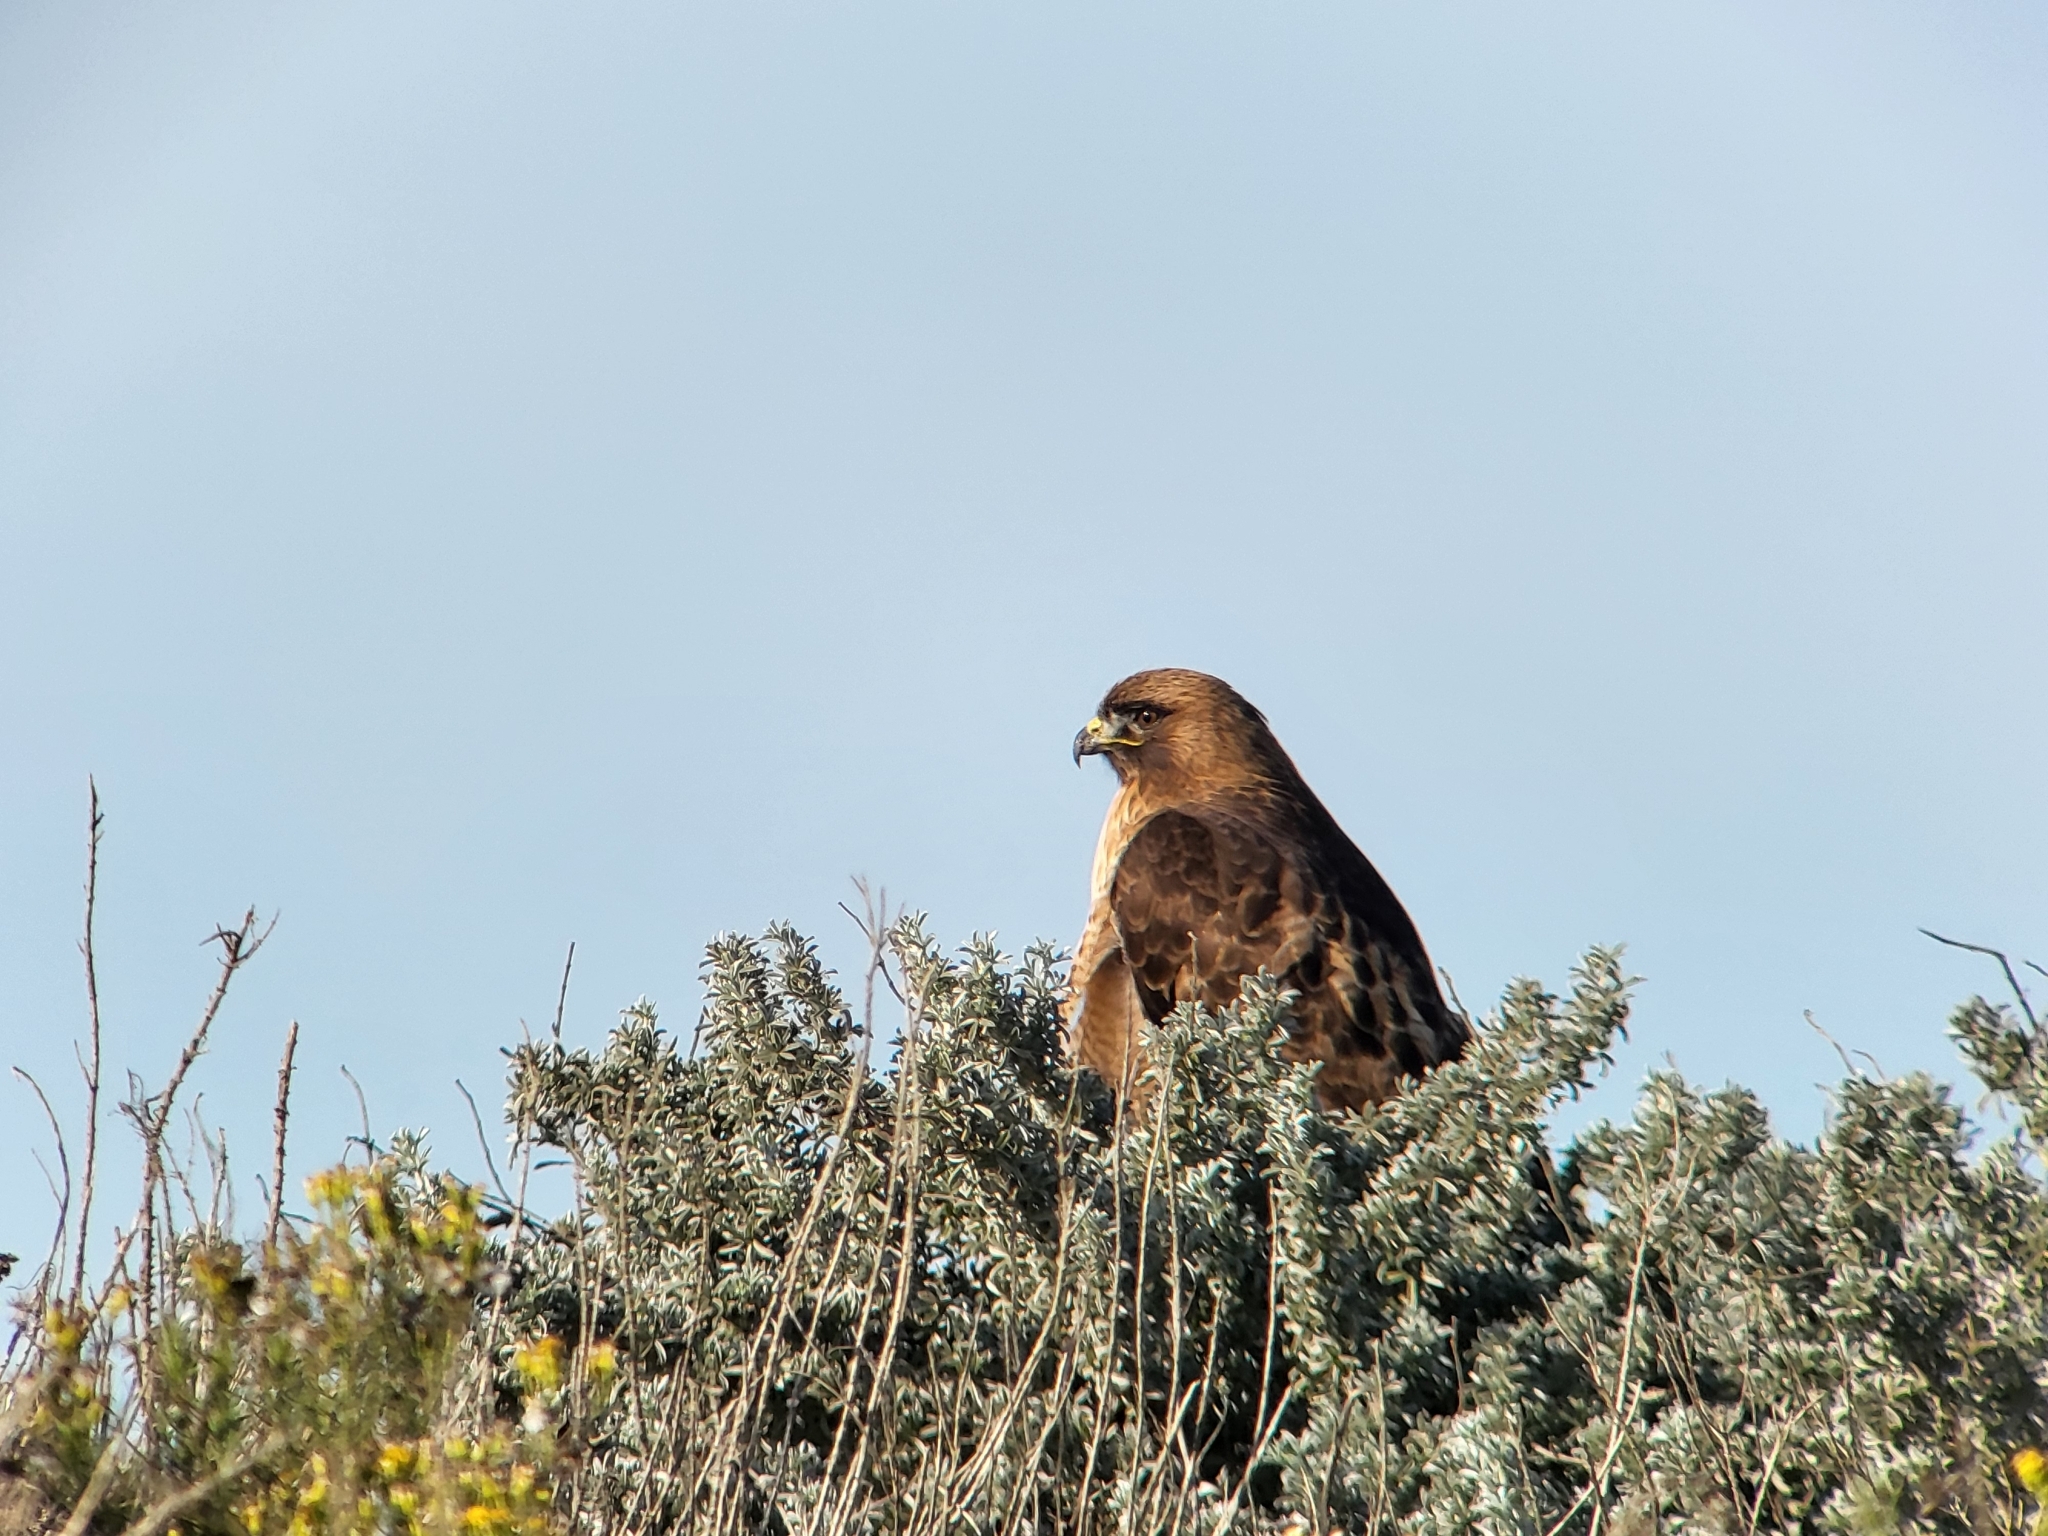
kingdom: Animalia
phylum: Chordata
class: Aves
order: Accipitriformes
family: Accipitridae
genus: Buteo
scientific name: Buteo jamaicensis
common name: Red-tailed hawk
